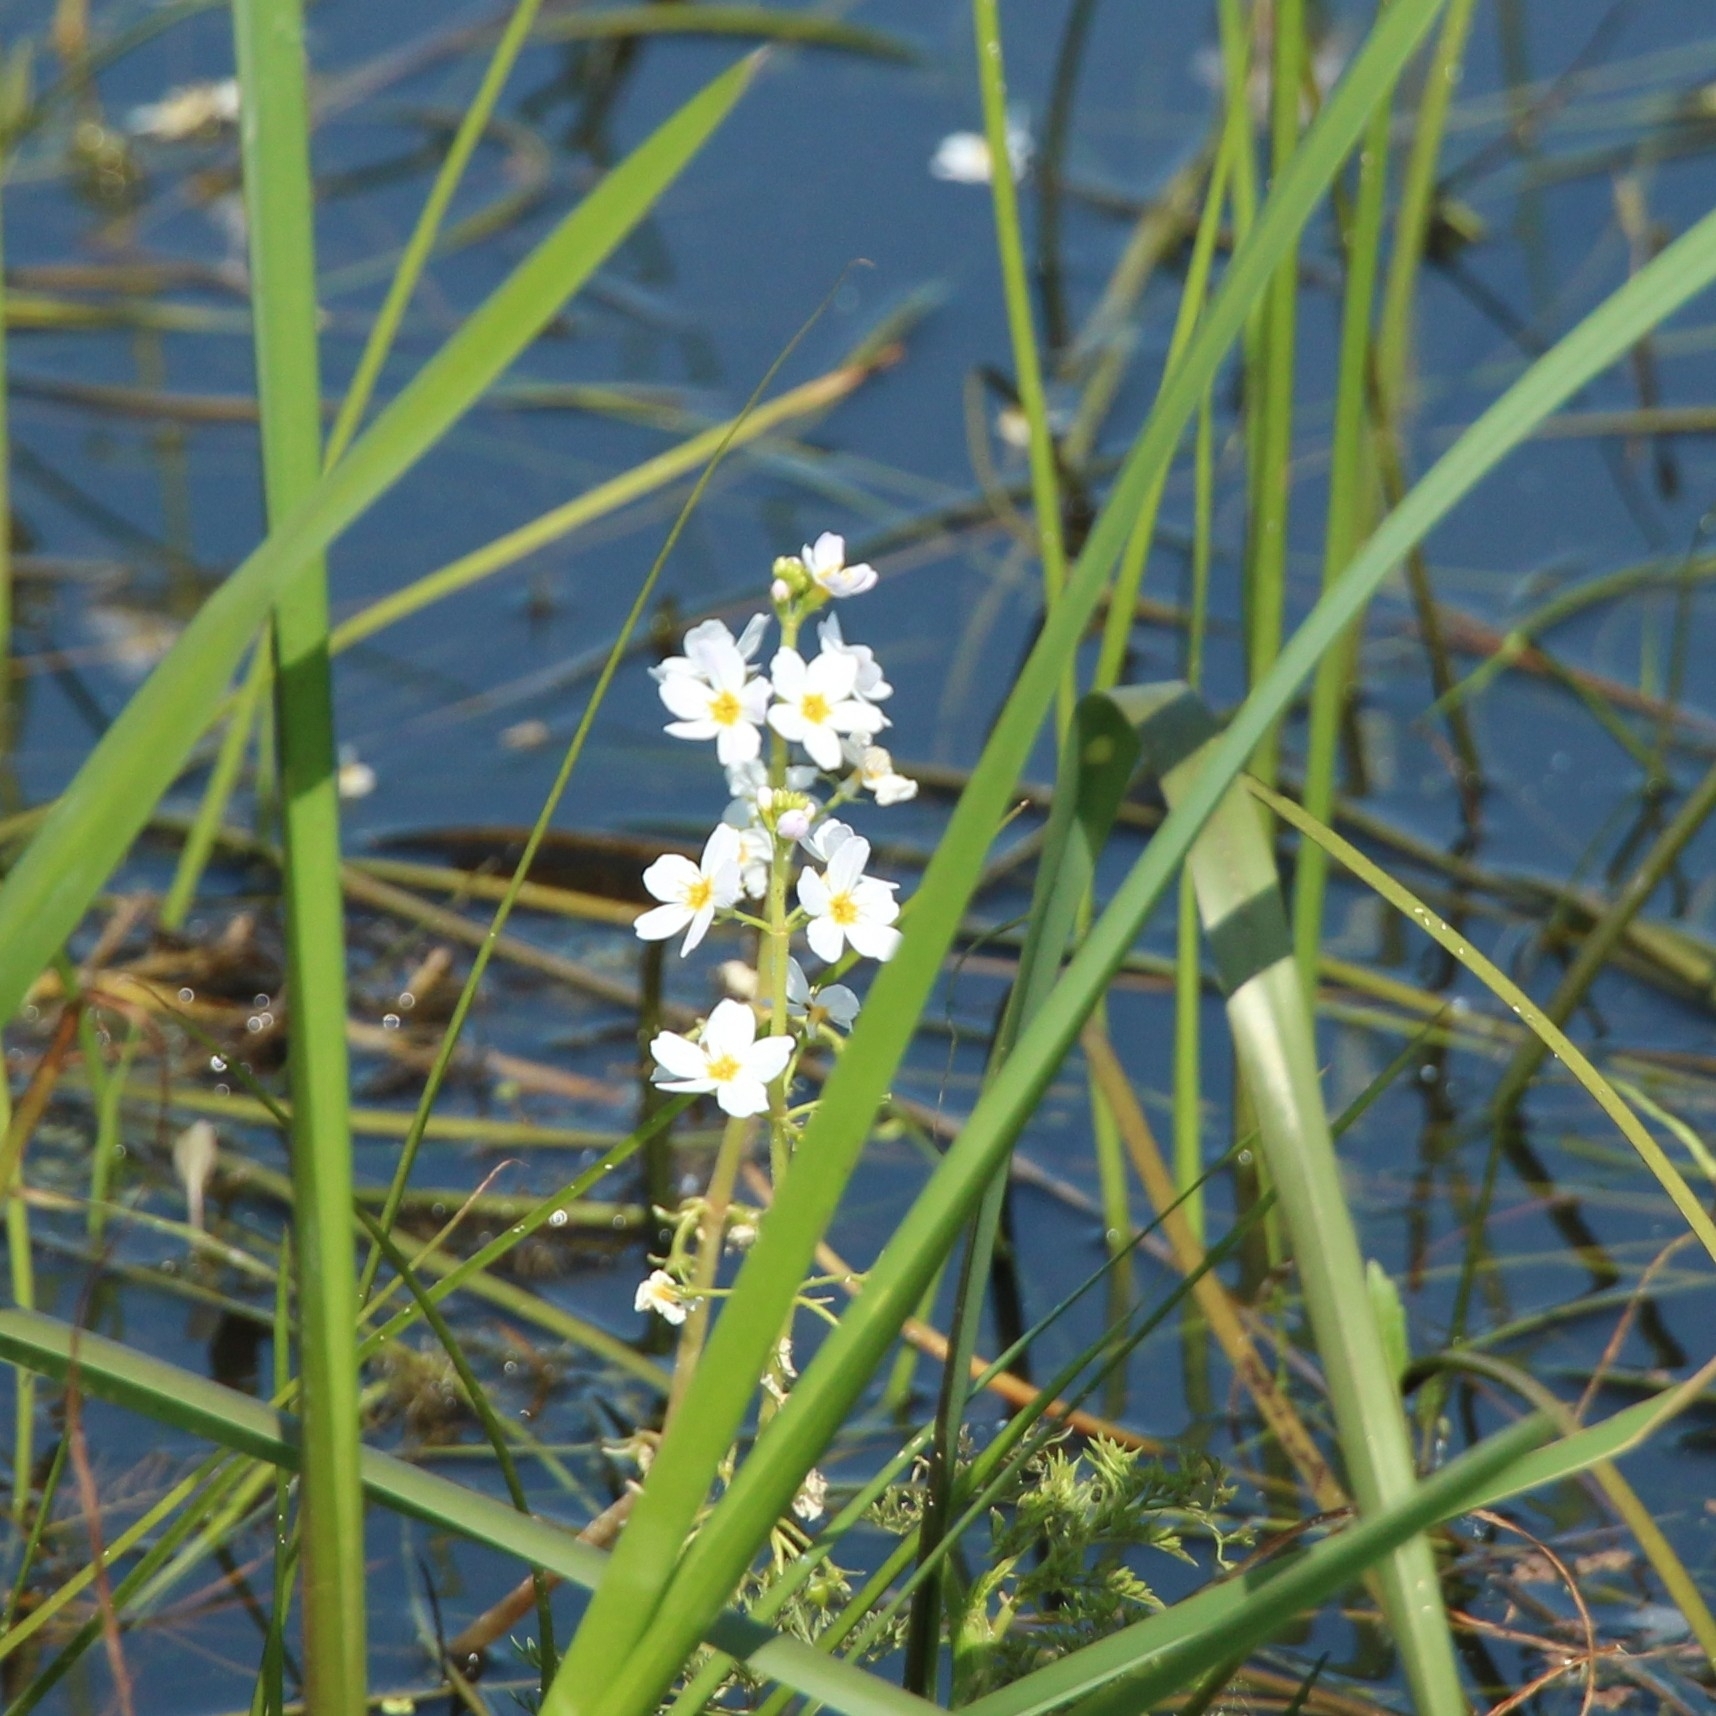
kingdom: Plantae
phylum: Tracheophyta
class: Magnoliopsida
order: Ericales
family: Primulaceae
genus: Hottonia
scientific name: Hottonia palustris
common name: Water-violet
